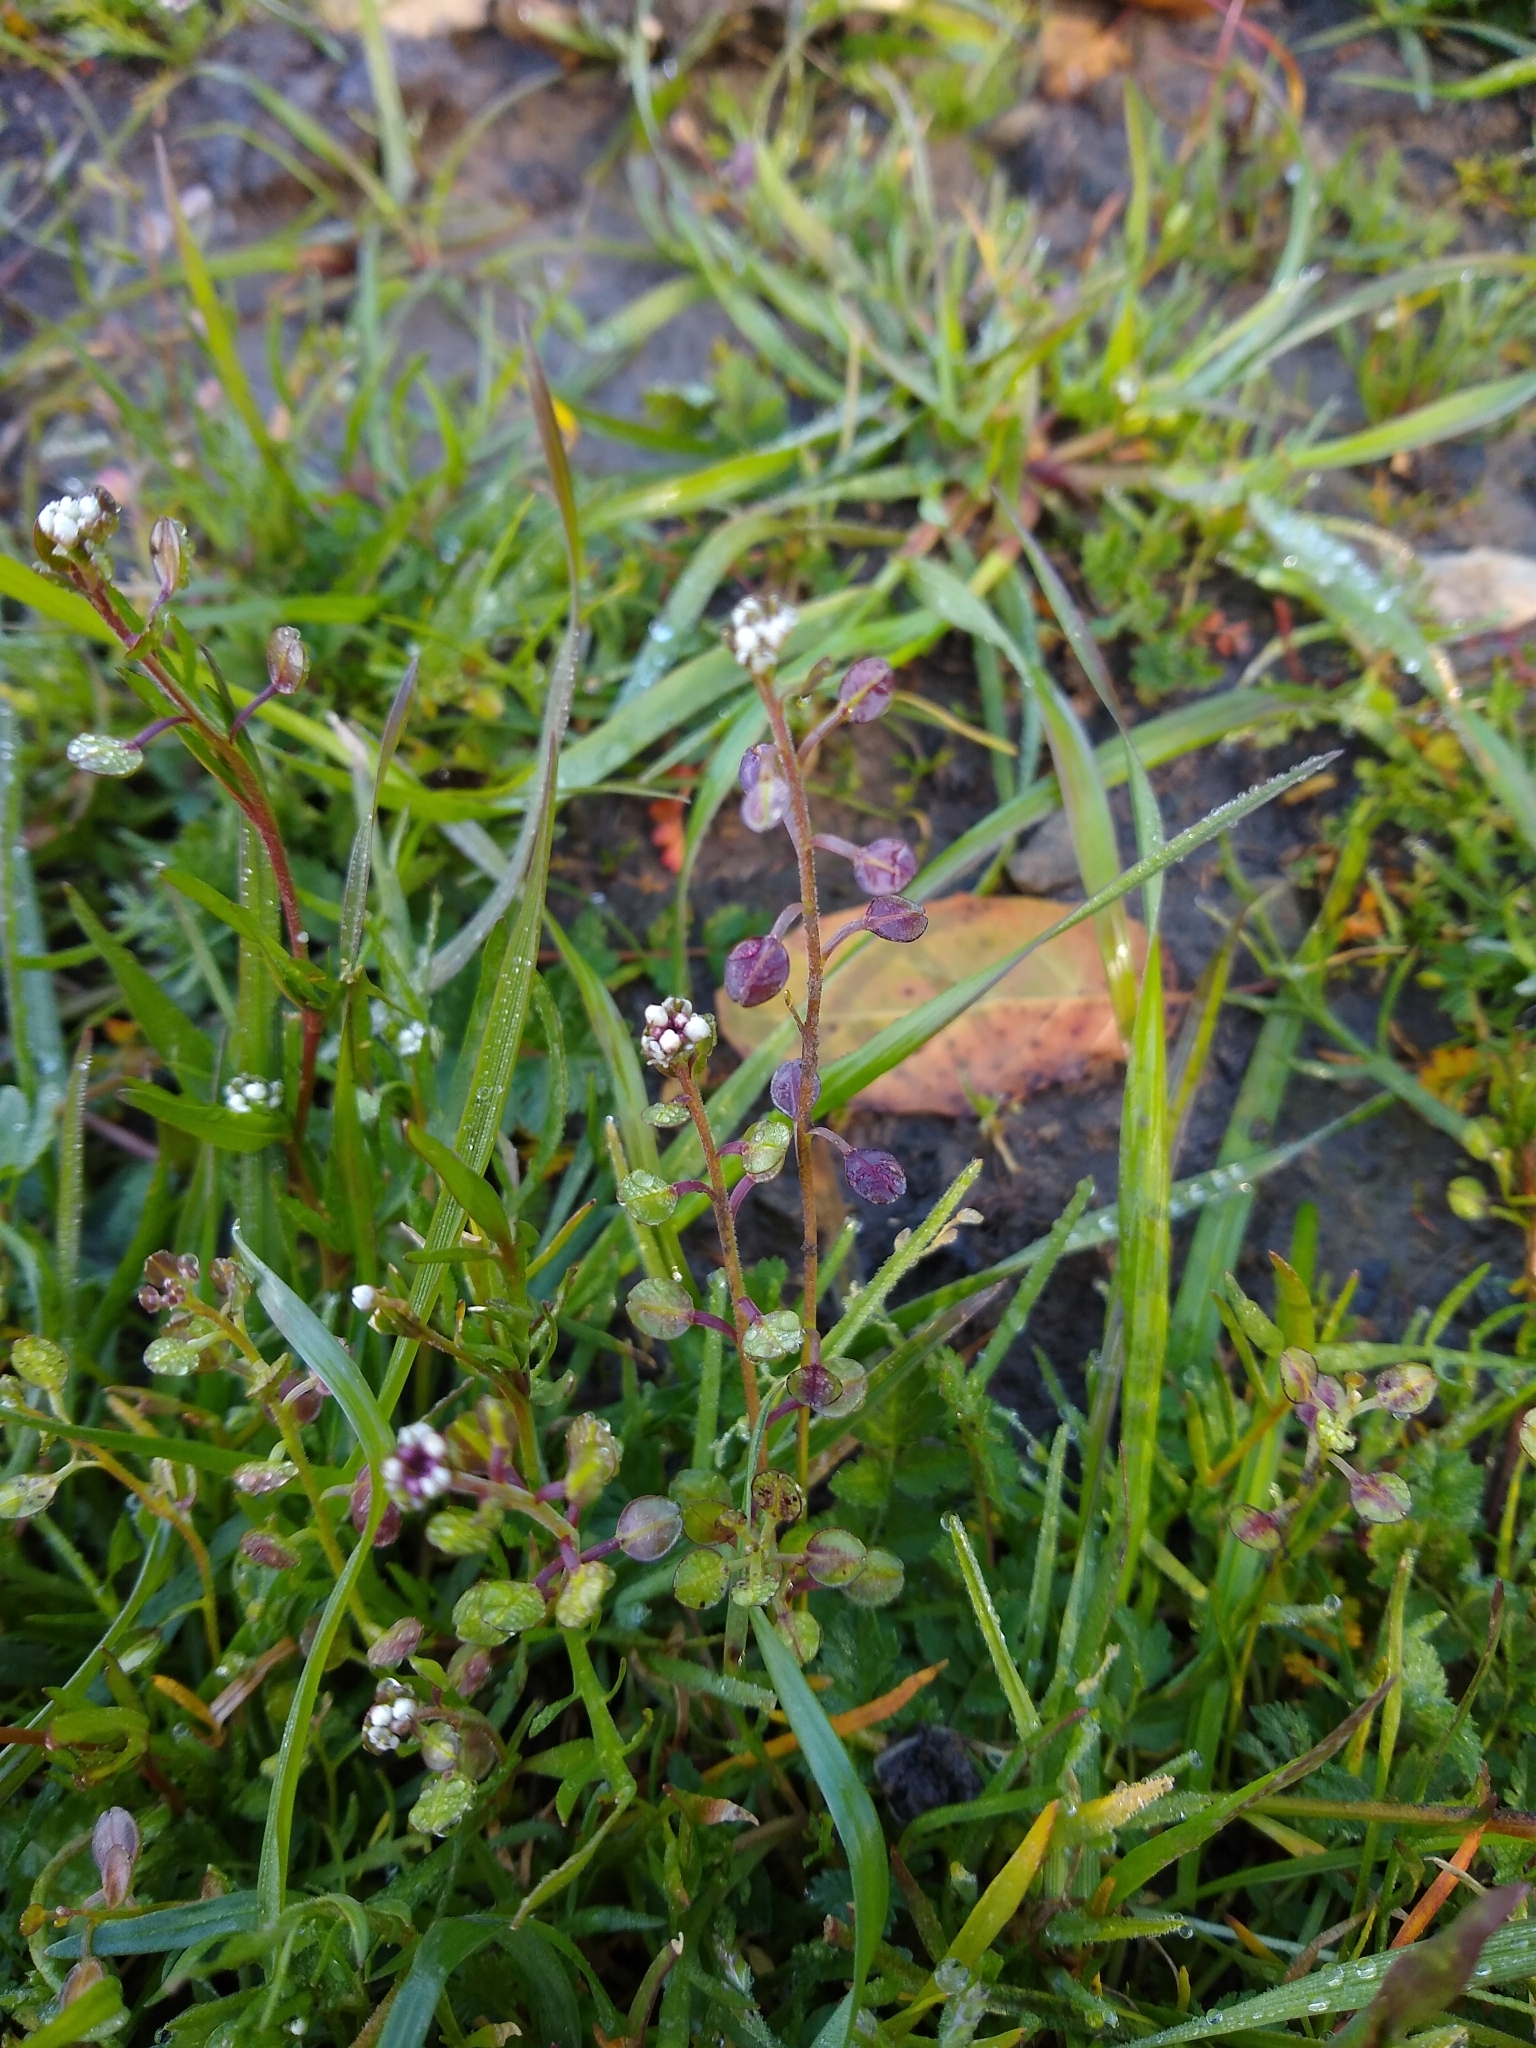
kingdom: Plantae
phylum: Tracheophyta
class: Magnoliopsida
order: Brassicales
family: Brassicaceae
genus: Lepidium
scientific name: Lepidium nitidum
